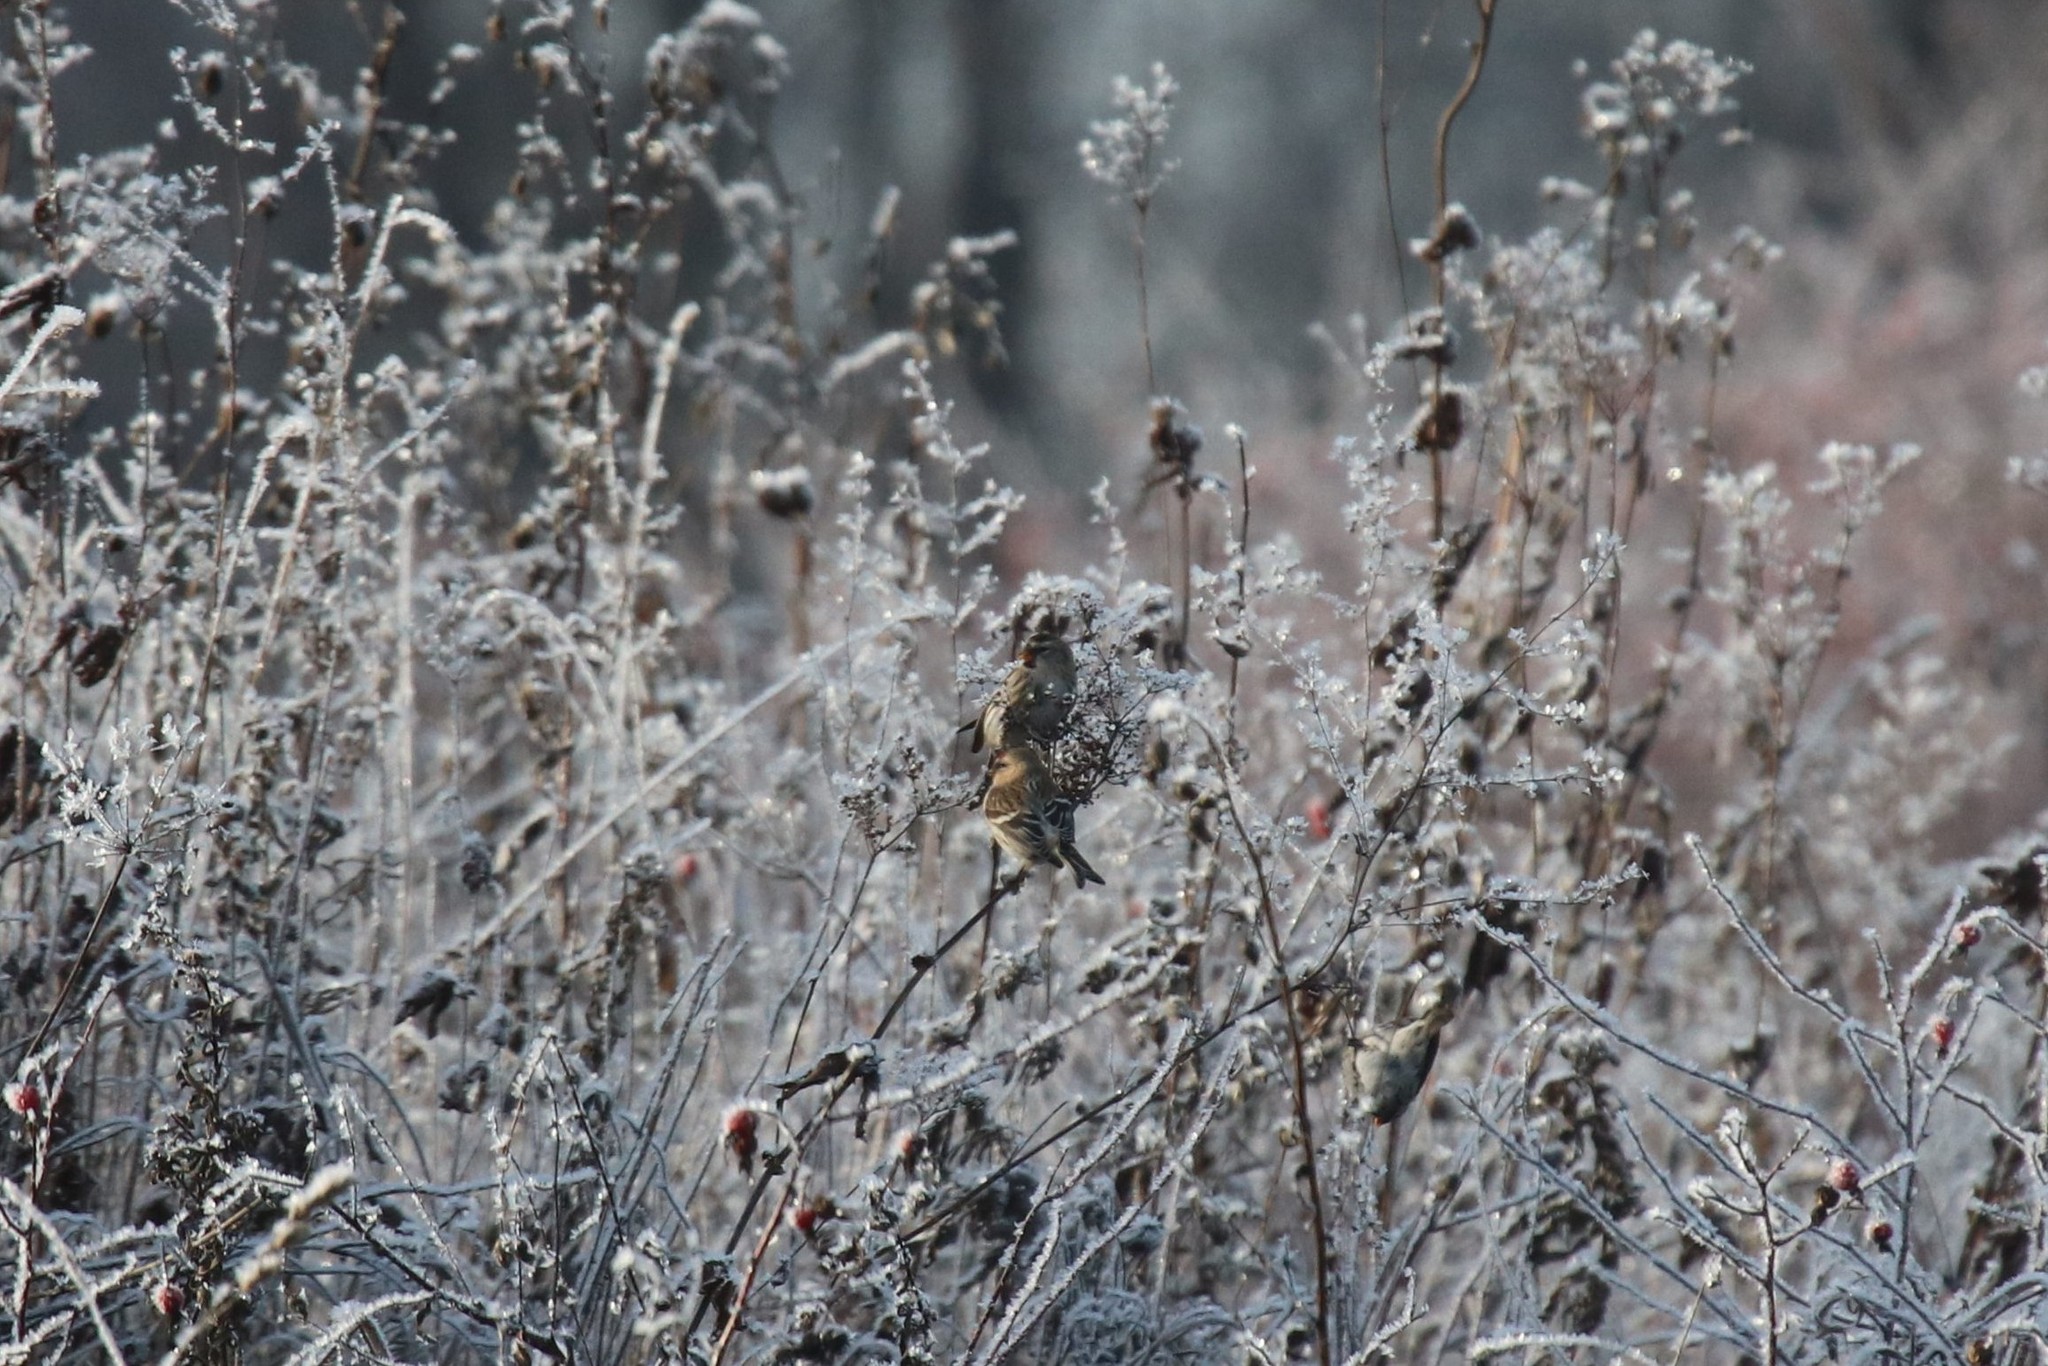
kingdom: Animalia
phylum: Chordata
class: Aves
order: Passeriformes
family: Fringillidae
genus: Acanthis
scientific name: Acanthis flammea
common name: Common redpoll
